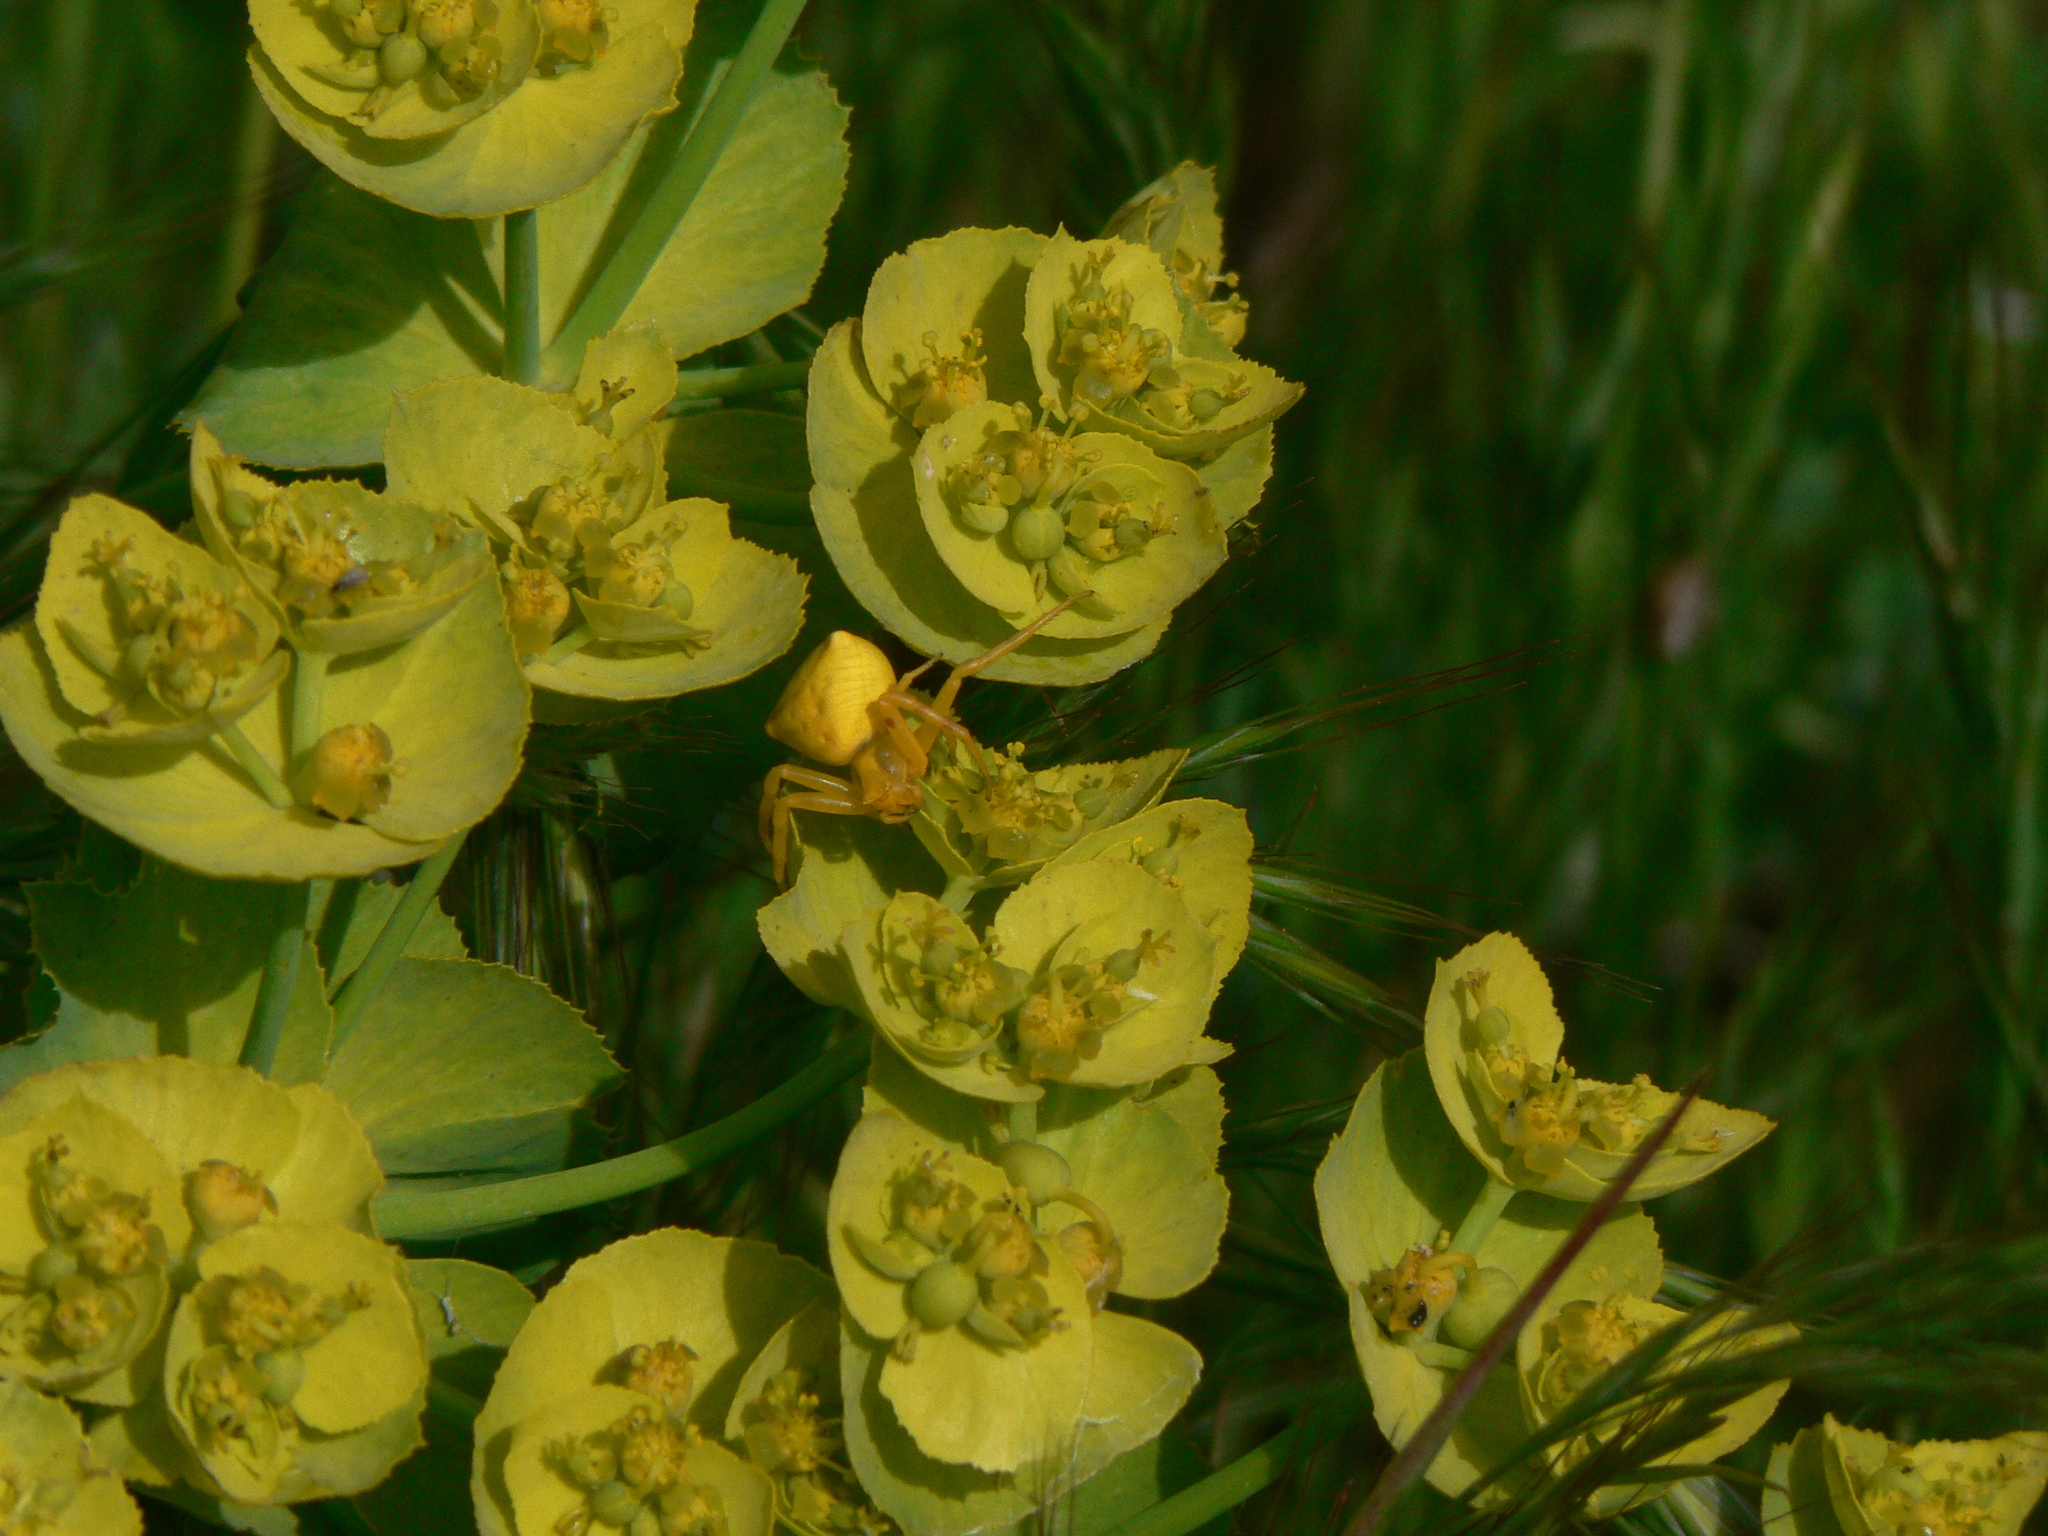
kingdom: Animalia
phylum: Arthropoda
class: Arachnida
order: Araneae
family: Thomisidae
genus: Thomisus
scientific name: Thomisus onustus
